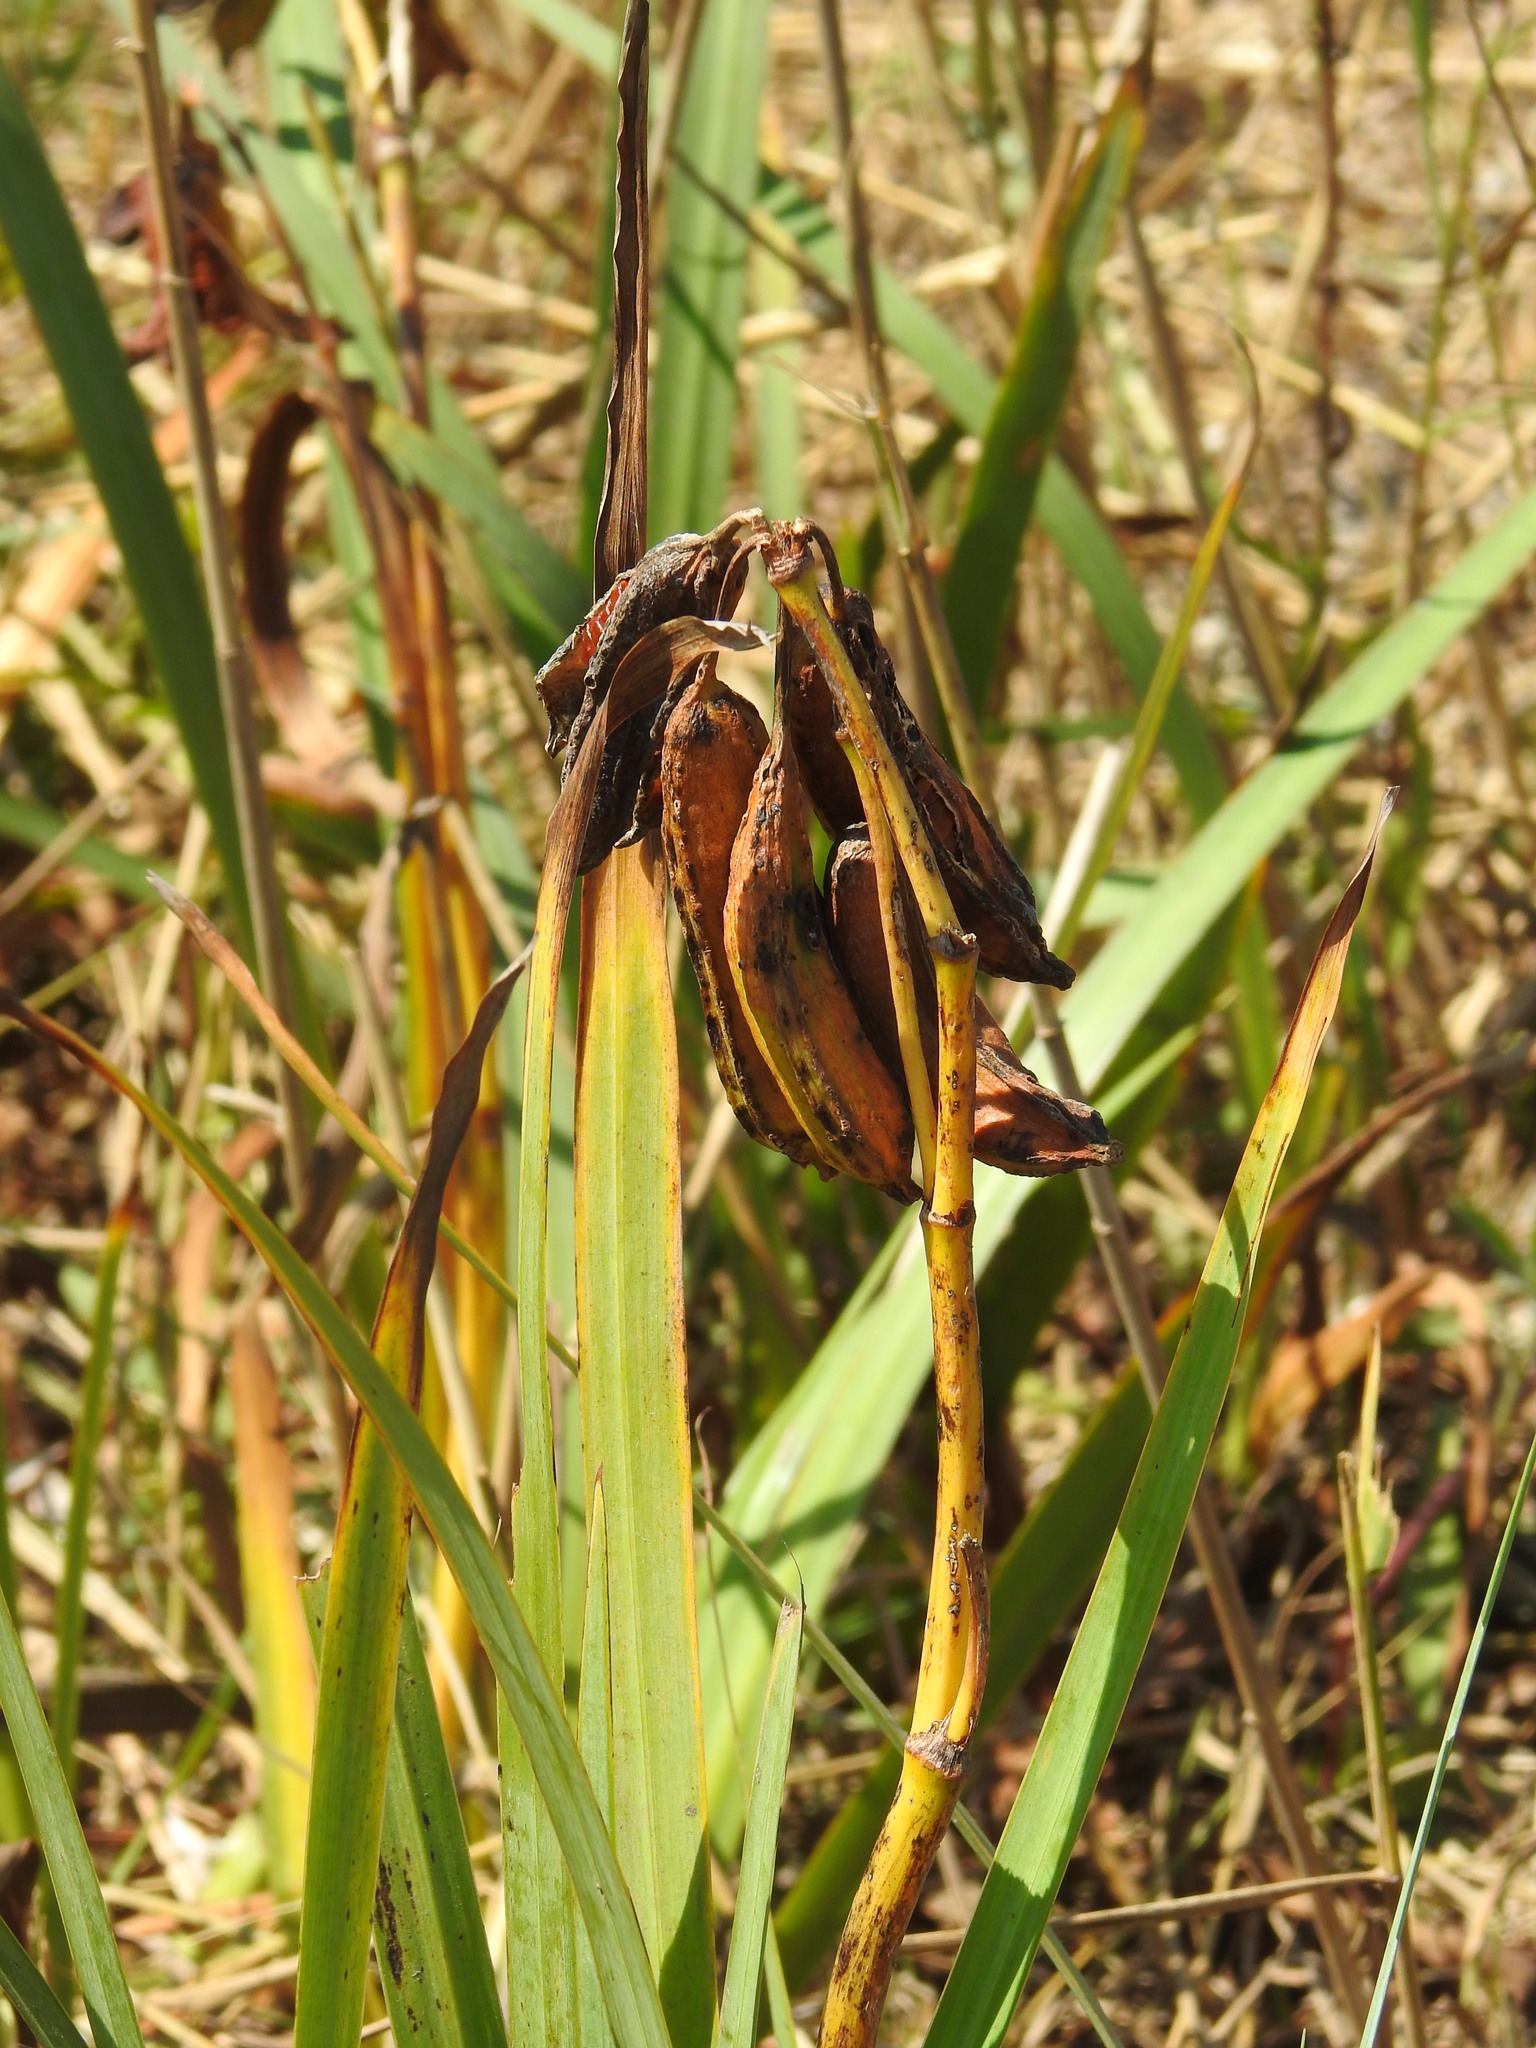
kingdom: Plantae
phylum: Tracheophyta
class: Liliopsida
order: Asparagales
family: Iridaceae
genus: Iris
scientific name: Iris pseudacorus
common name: Yellow flag
